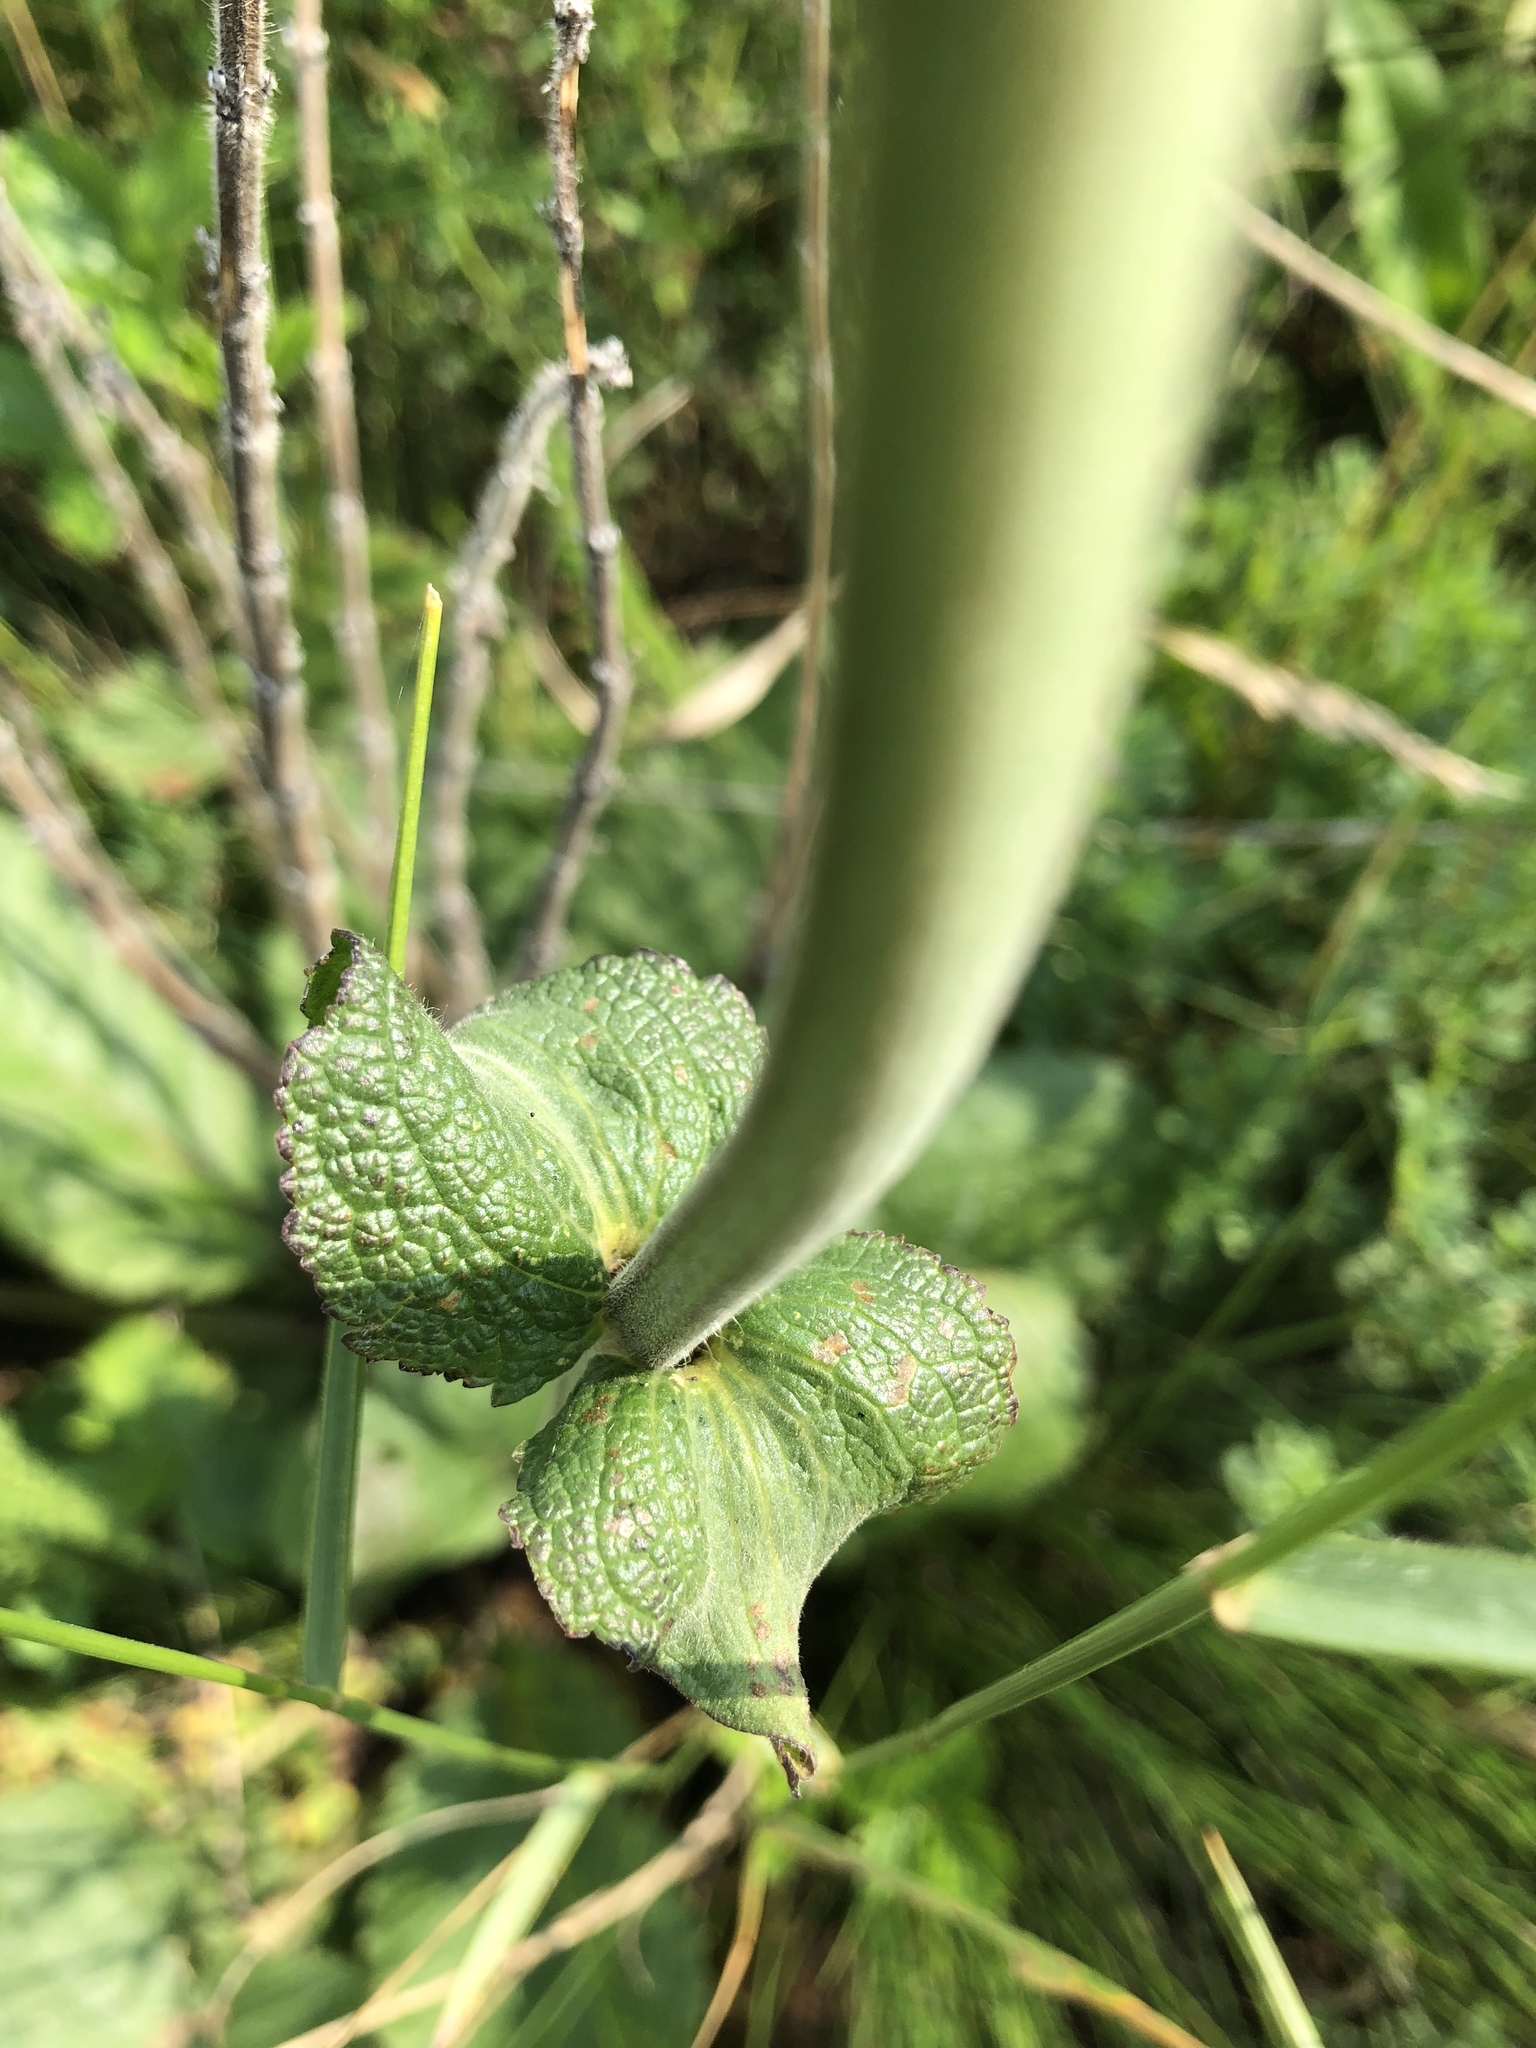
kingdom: Plantae
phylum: Tracheophyta
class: Magnoliopsida
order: Lamiales
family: Lamiaceae
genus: Salvia
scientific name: Salvia austriaca
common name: Austrian sage
